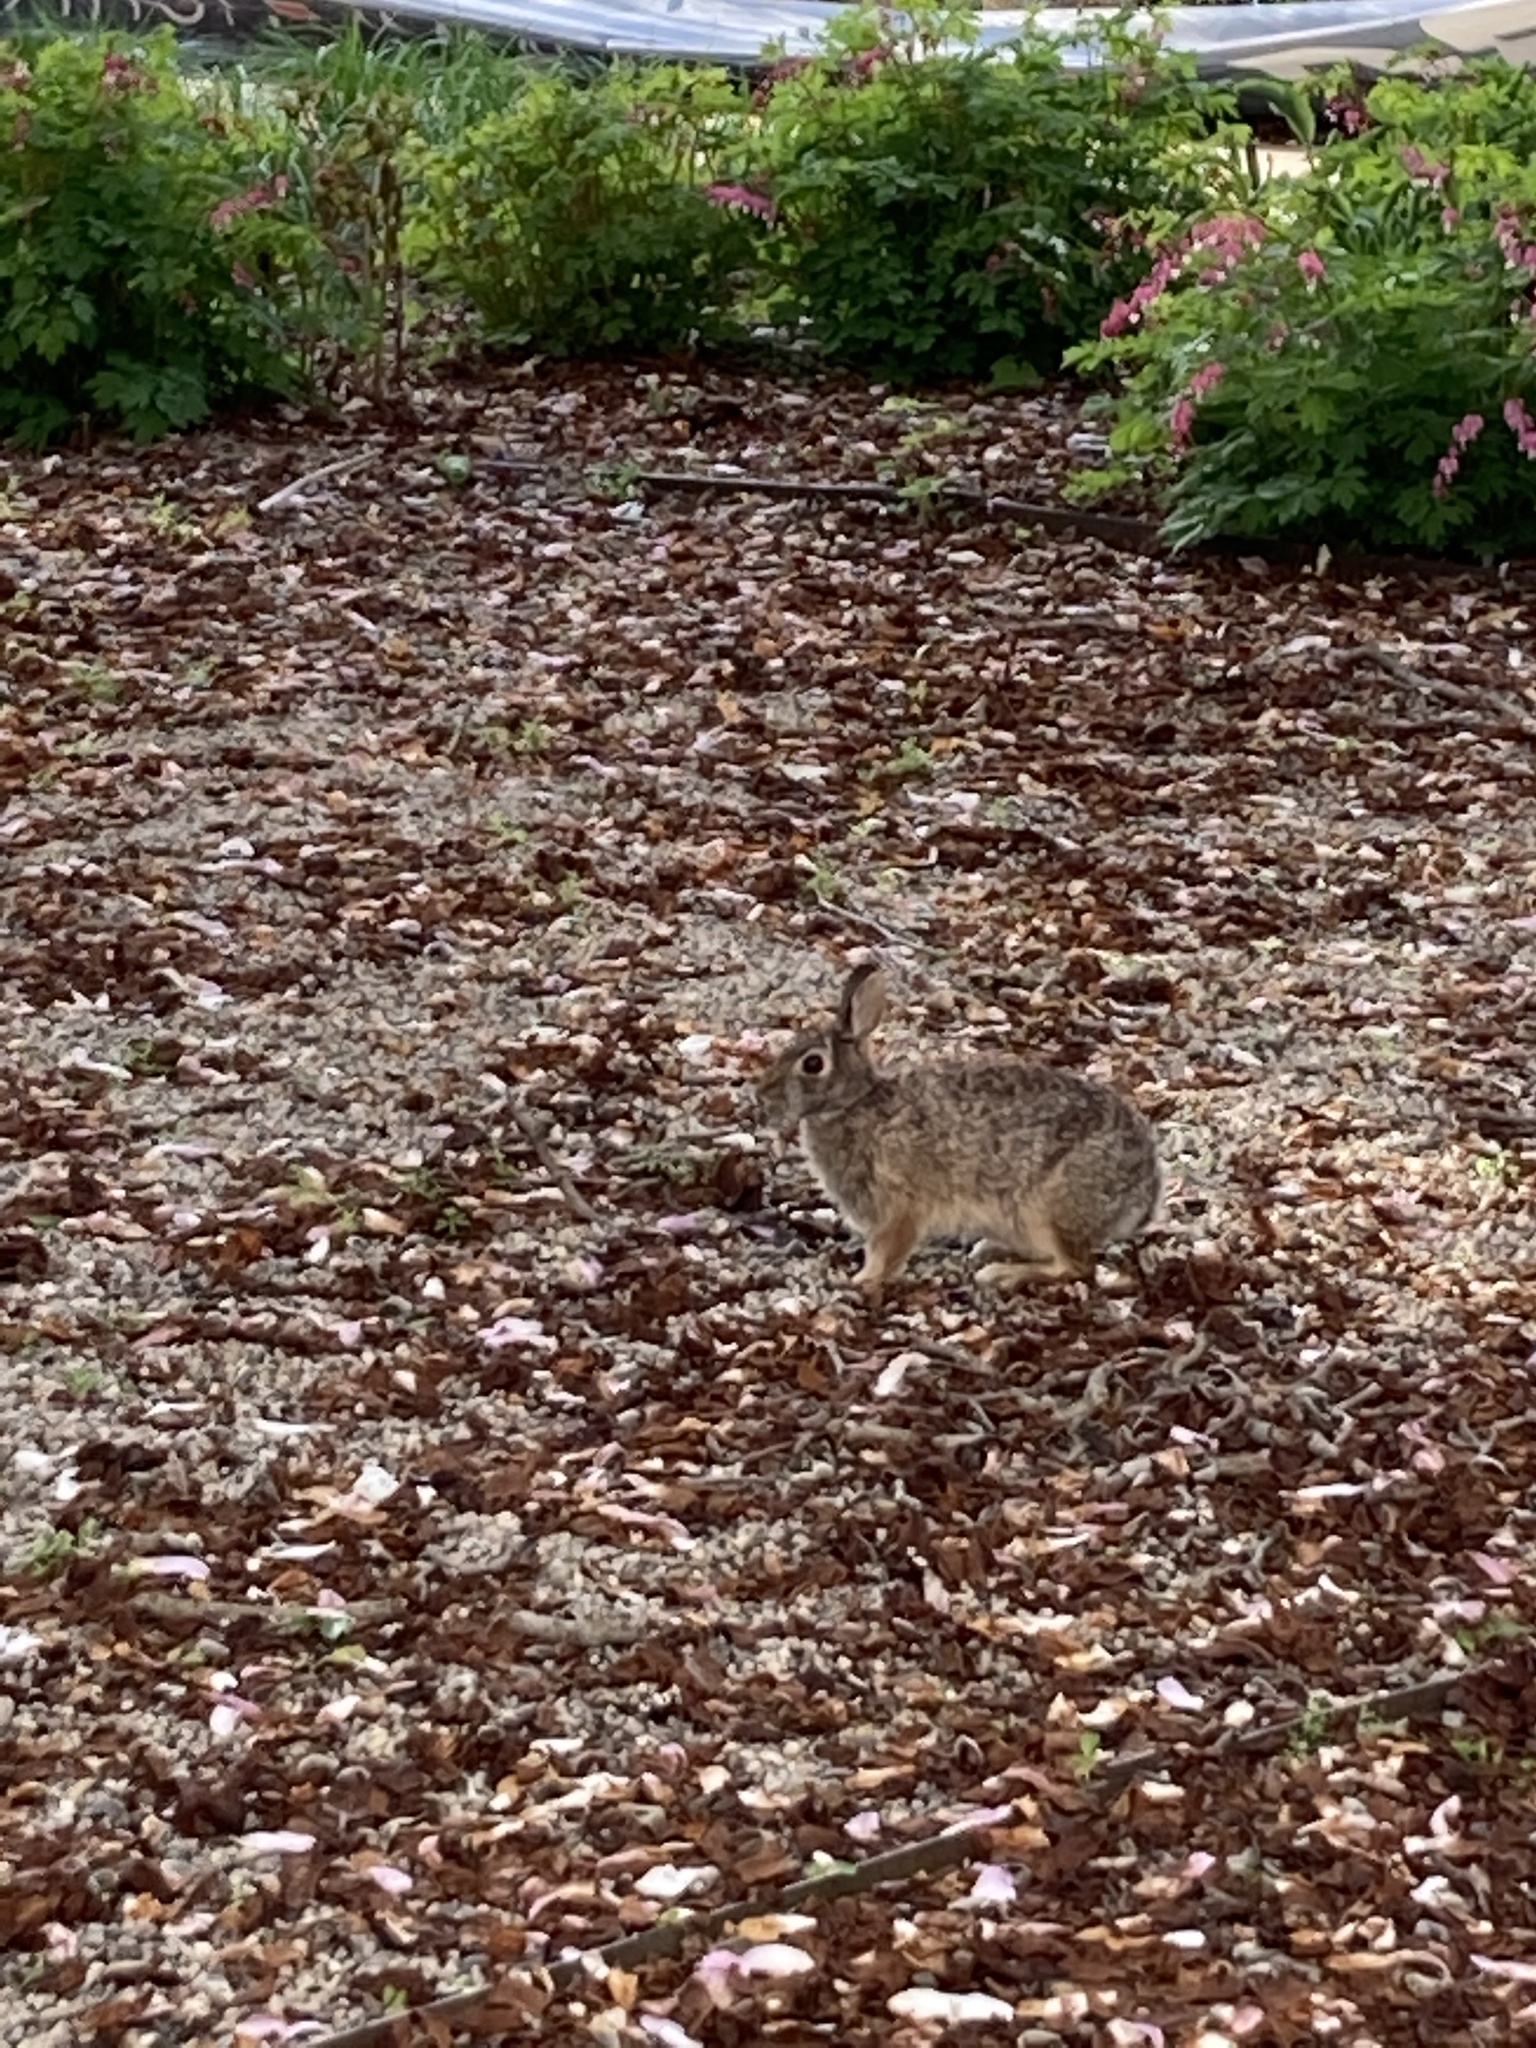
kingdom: Animalia
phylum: Chordata
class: Mammalia
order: Lagomorpha
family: Leporidae
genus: Sylvilagus
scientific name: Sylvilagus floridanus
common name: Eastern cottontail
